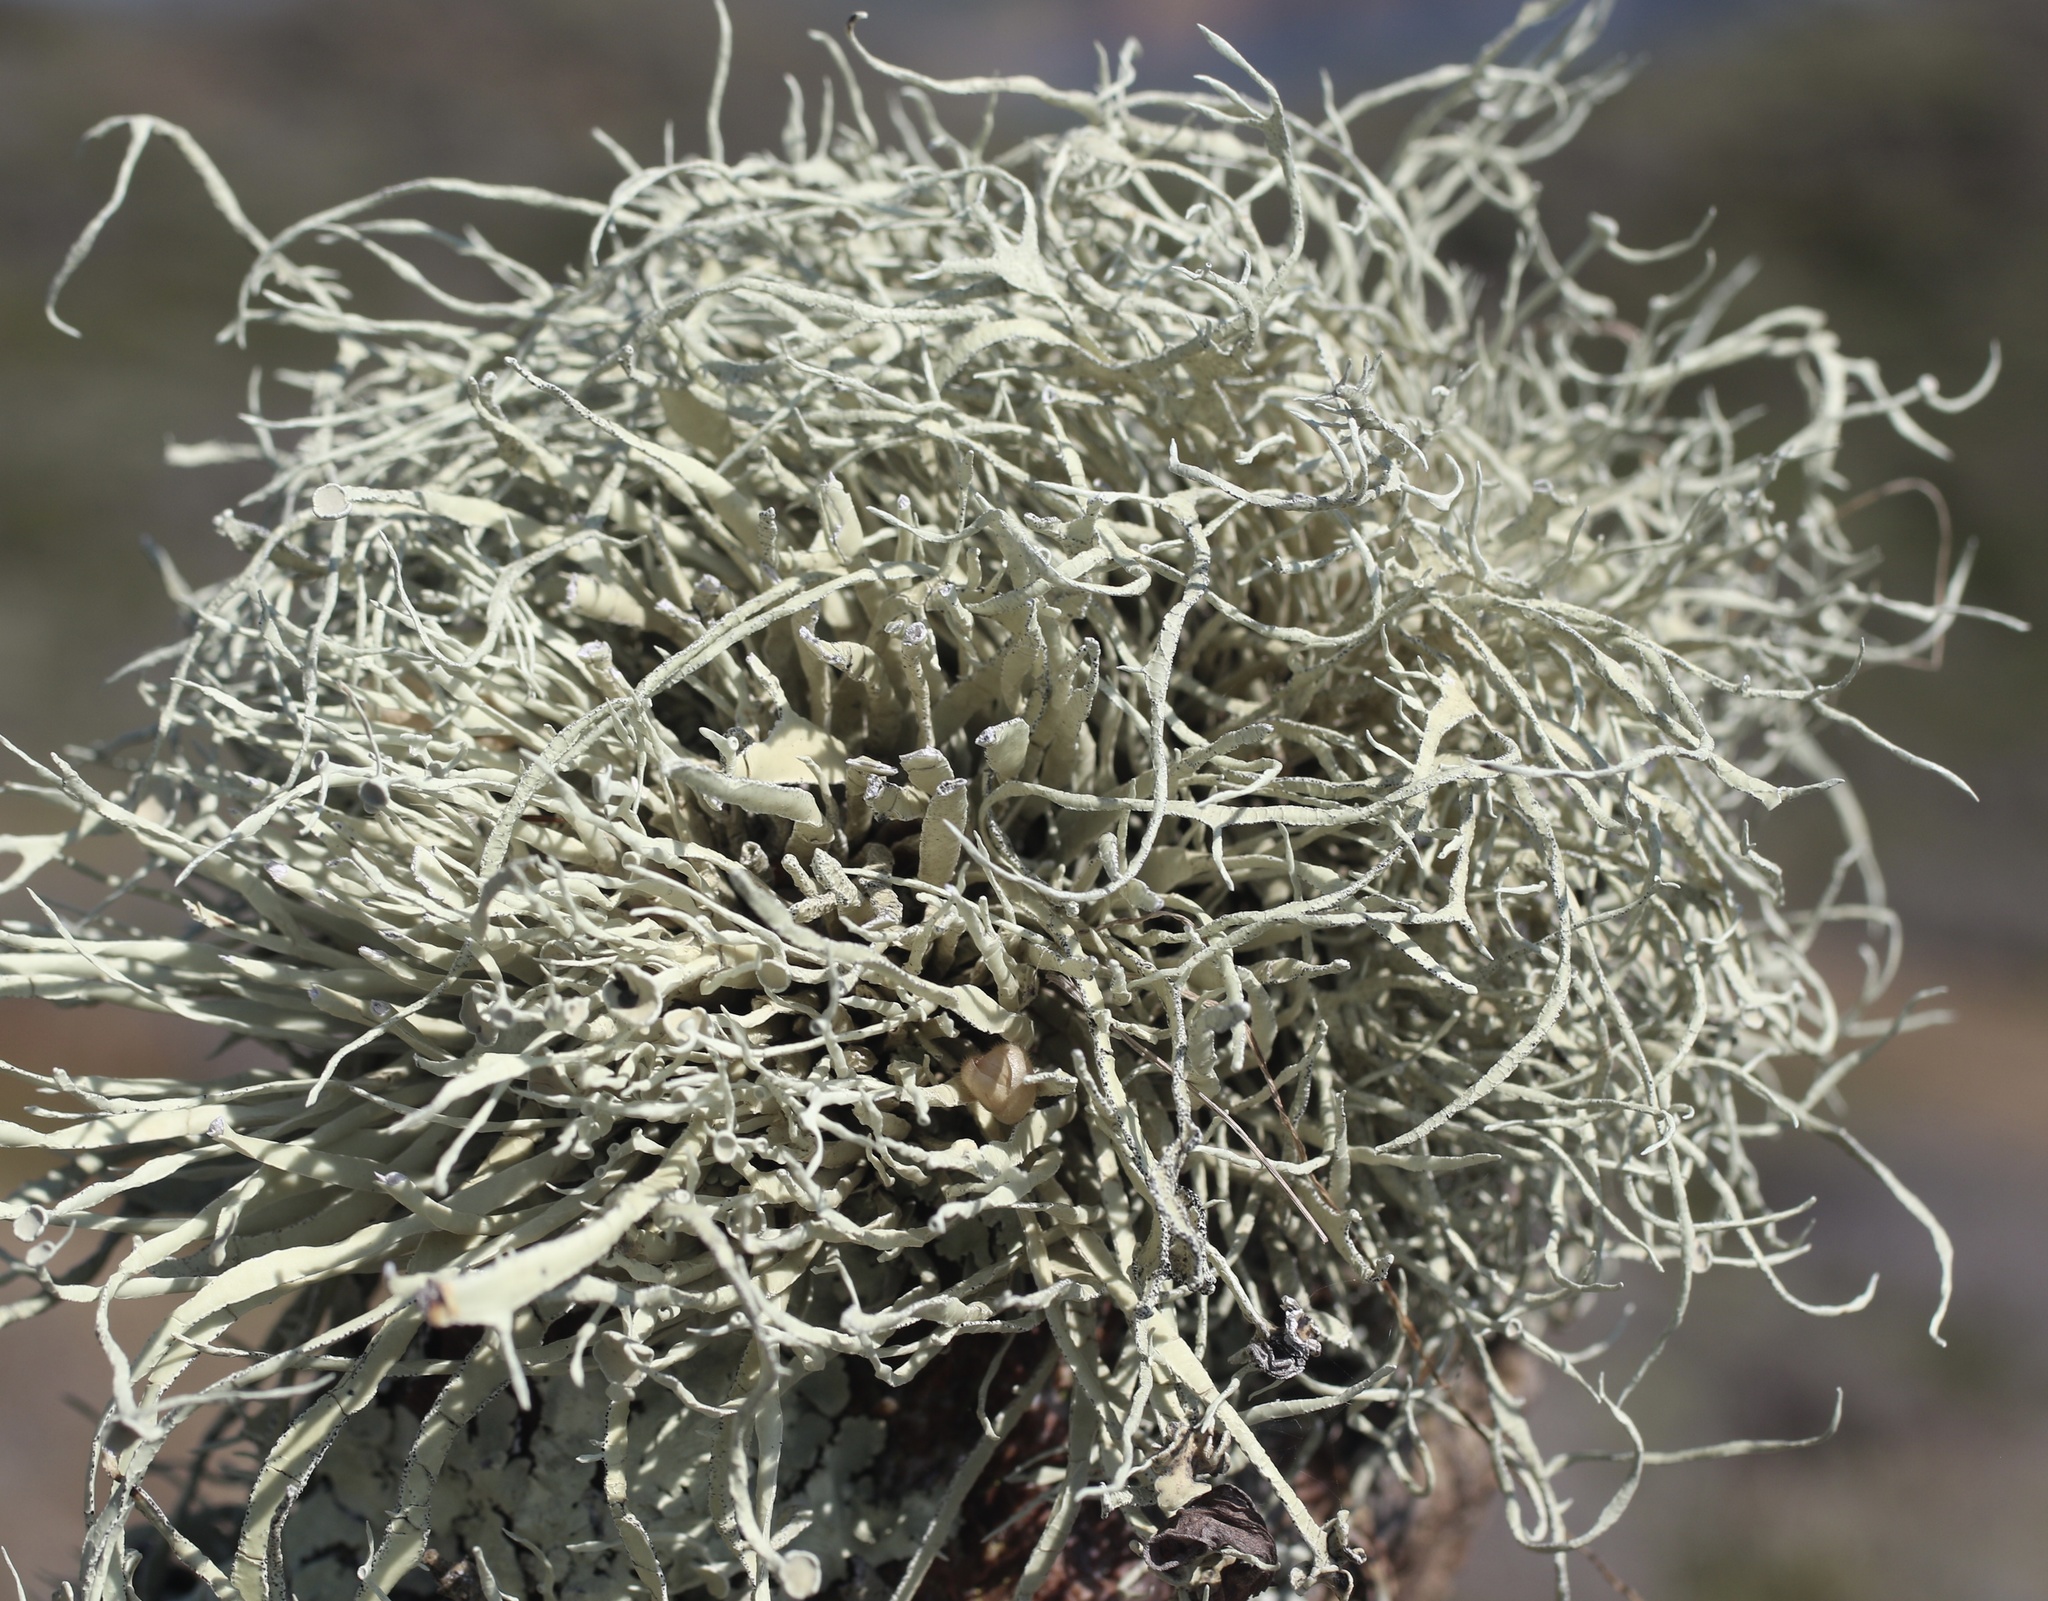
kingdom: Fungi
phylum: Ascomycota
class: Lecanoromycetes
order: Lecanorales
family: Ramalinaceae
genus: Niebla
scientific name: Niebla homalea
